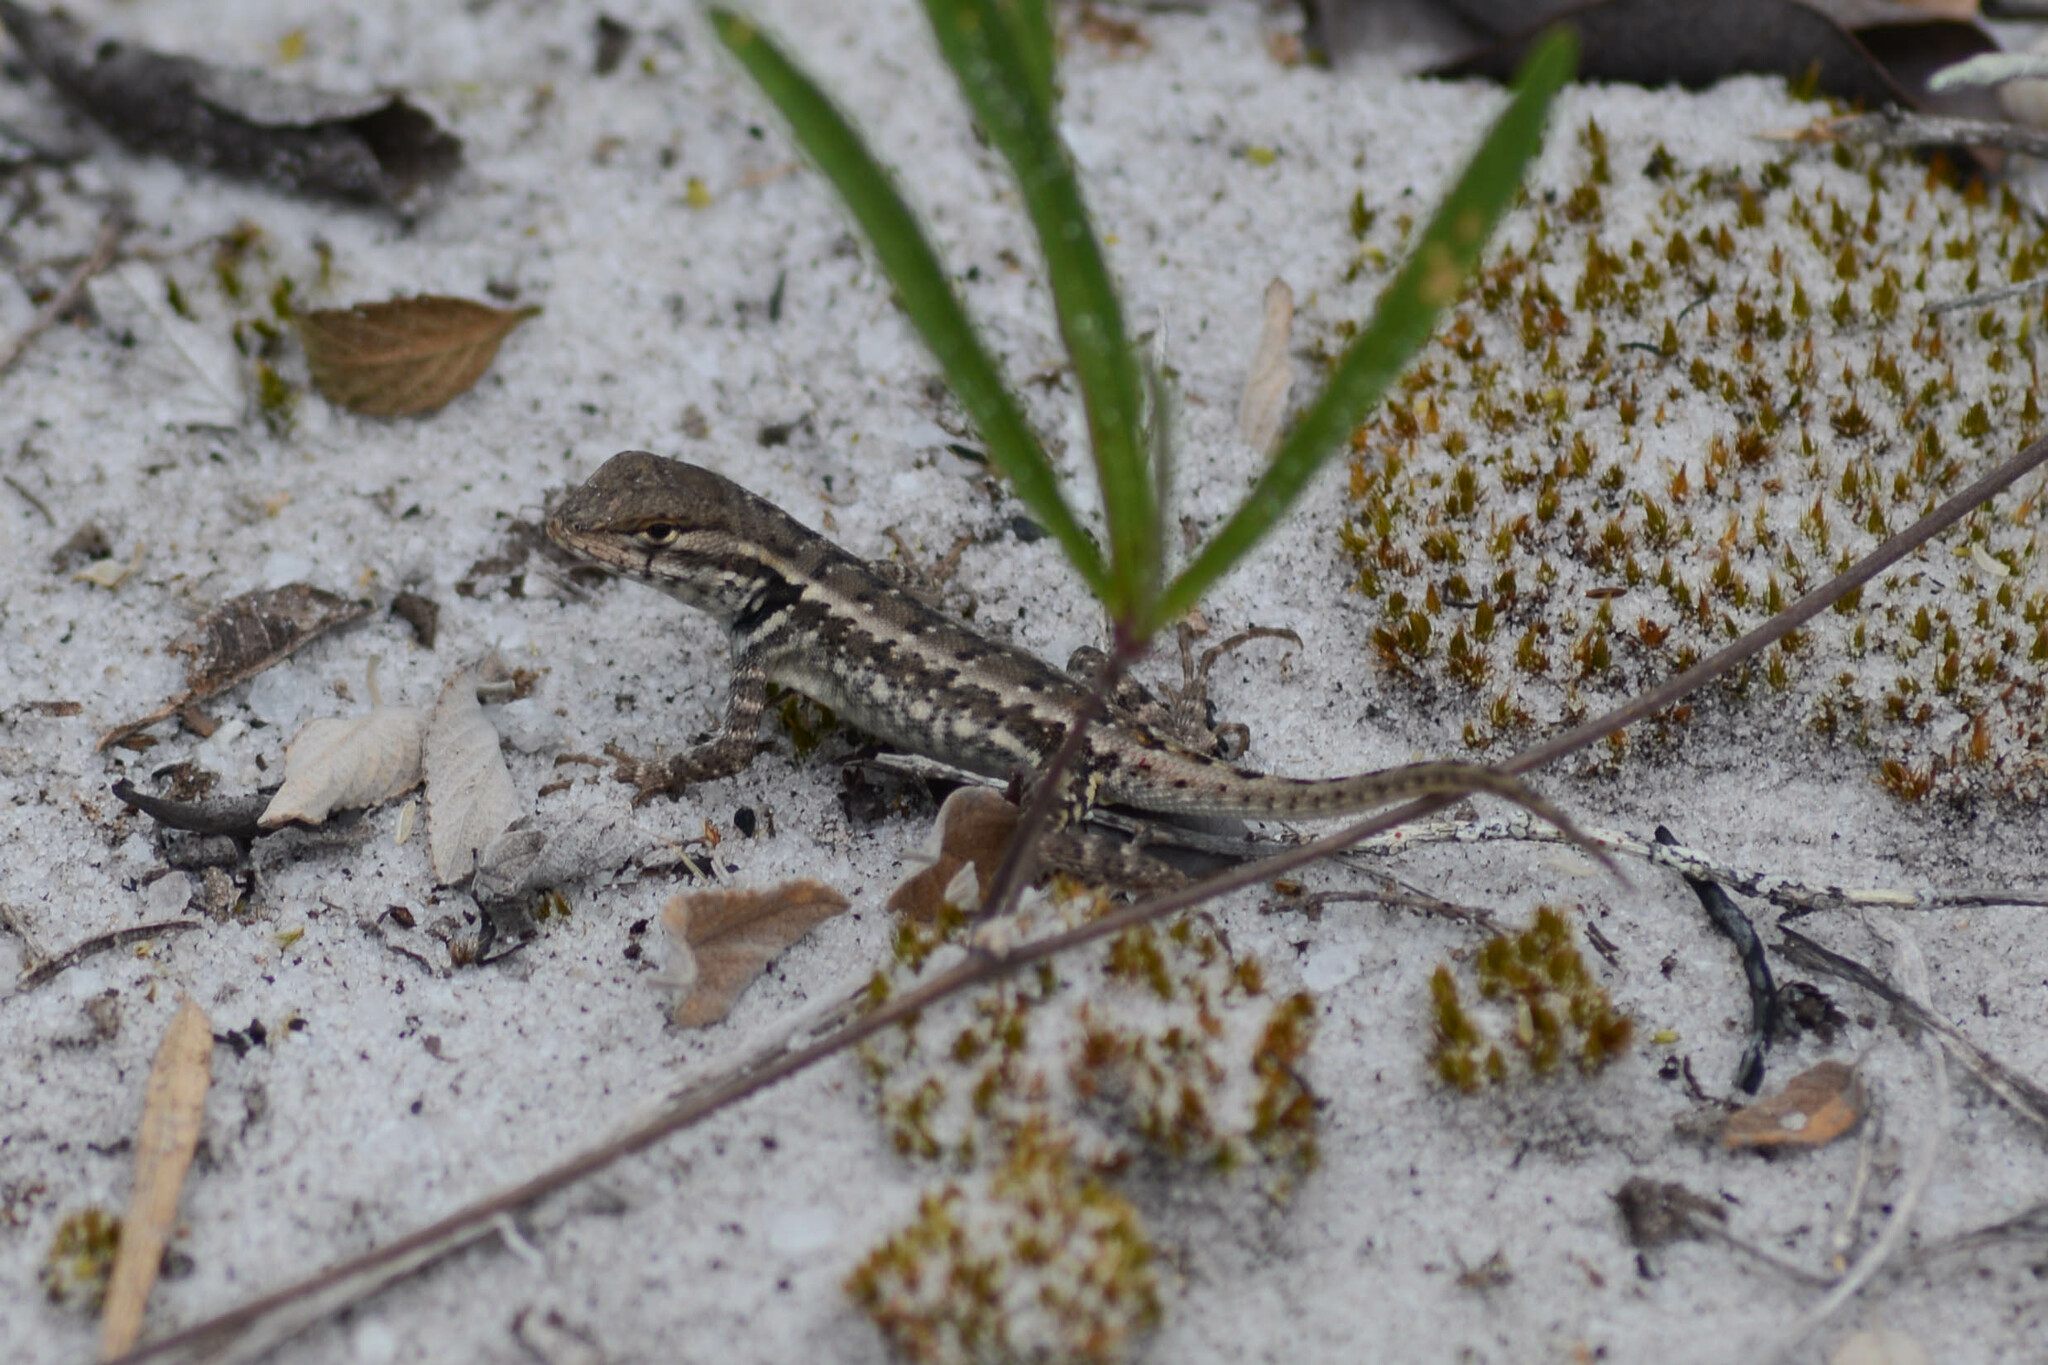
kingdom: Animalia
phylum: Chordata
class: Squamata
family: Tropiduridae
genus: Eurolophosaurus
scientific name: Eurolophosaurus nanuzae
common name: Rodrigues' lava lizard
